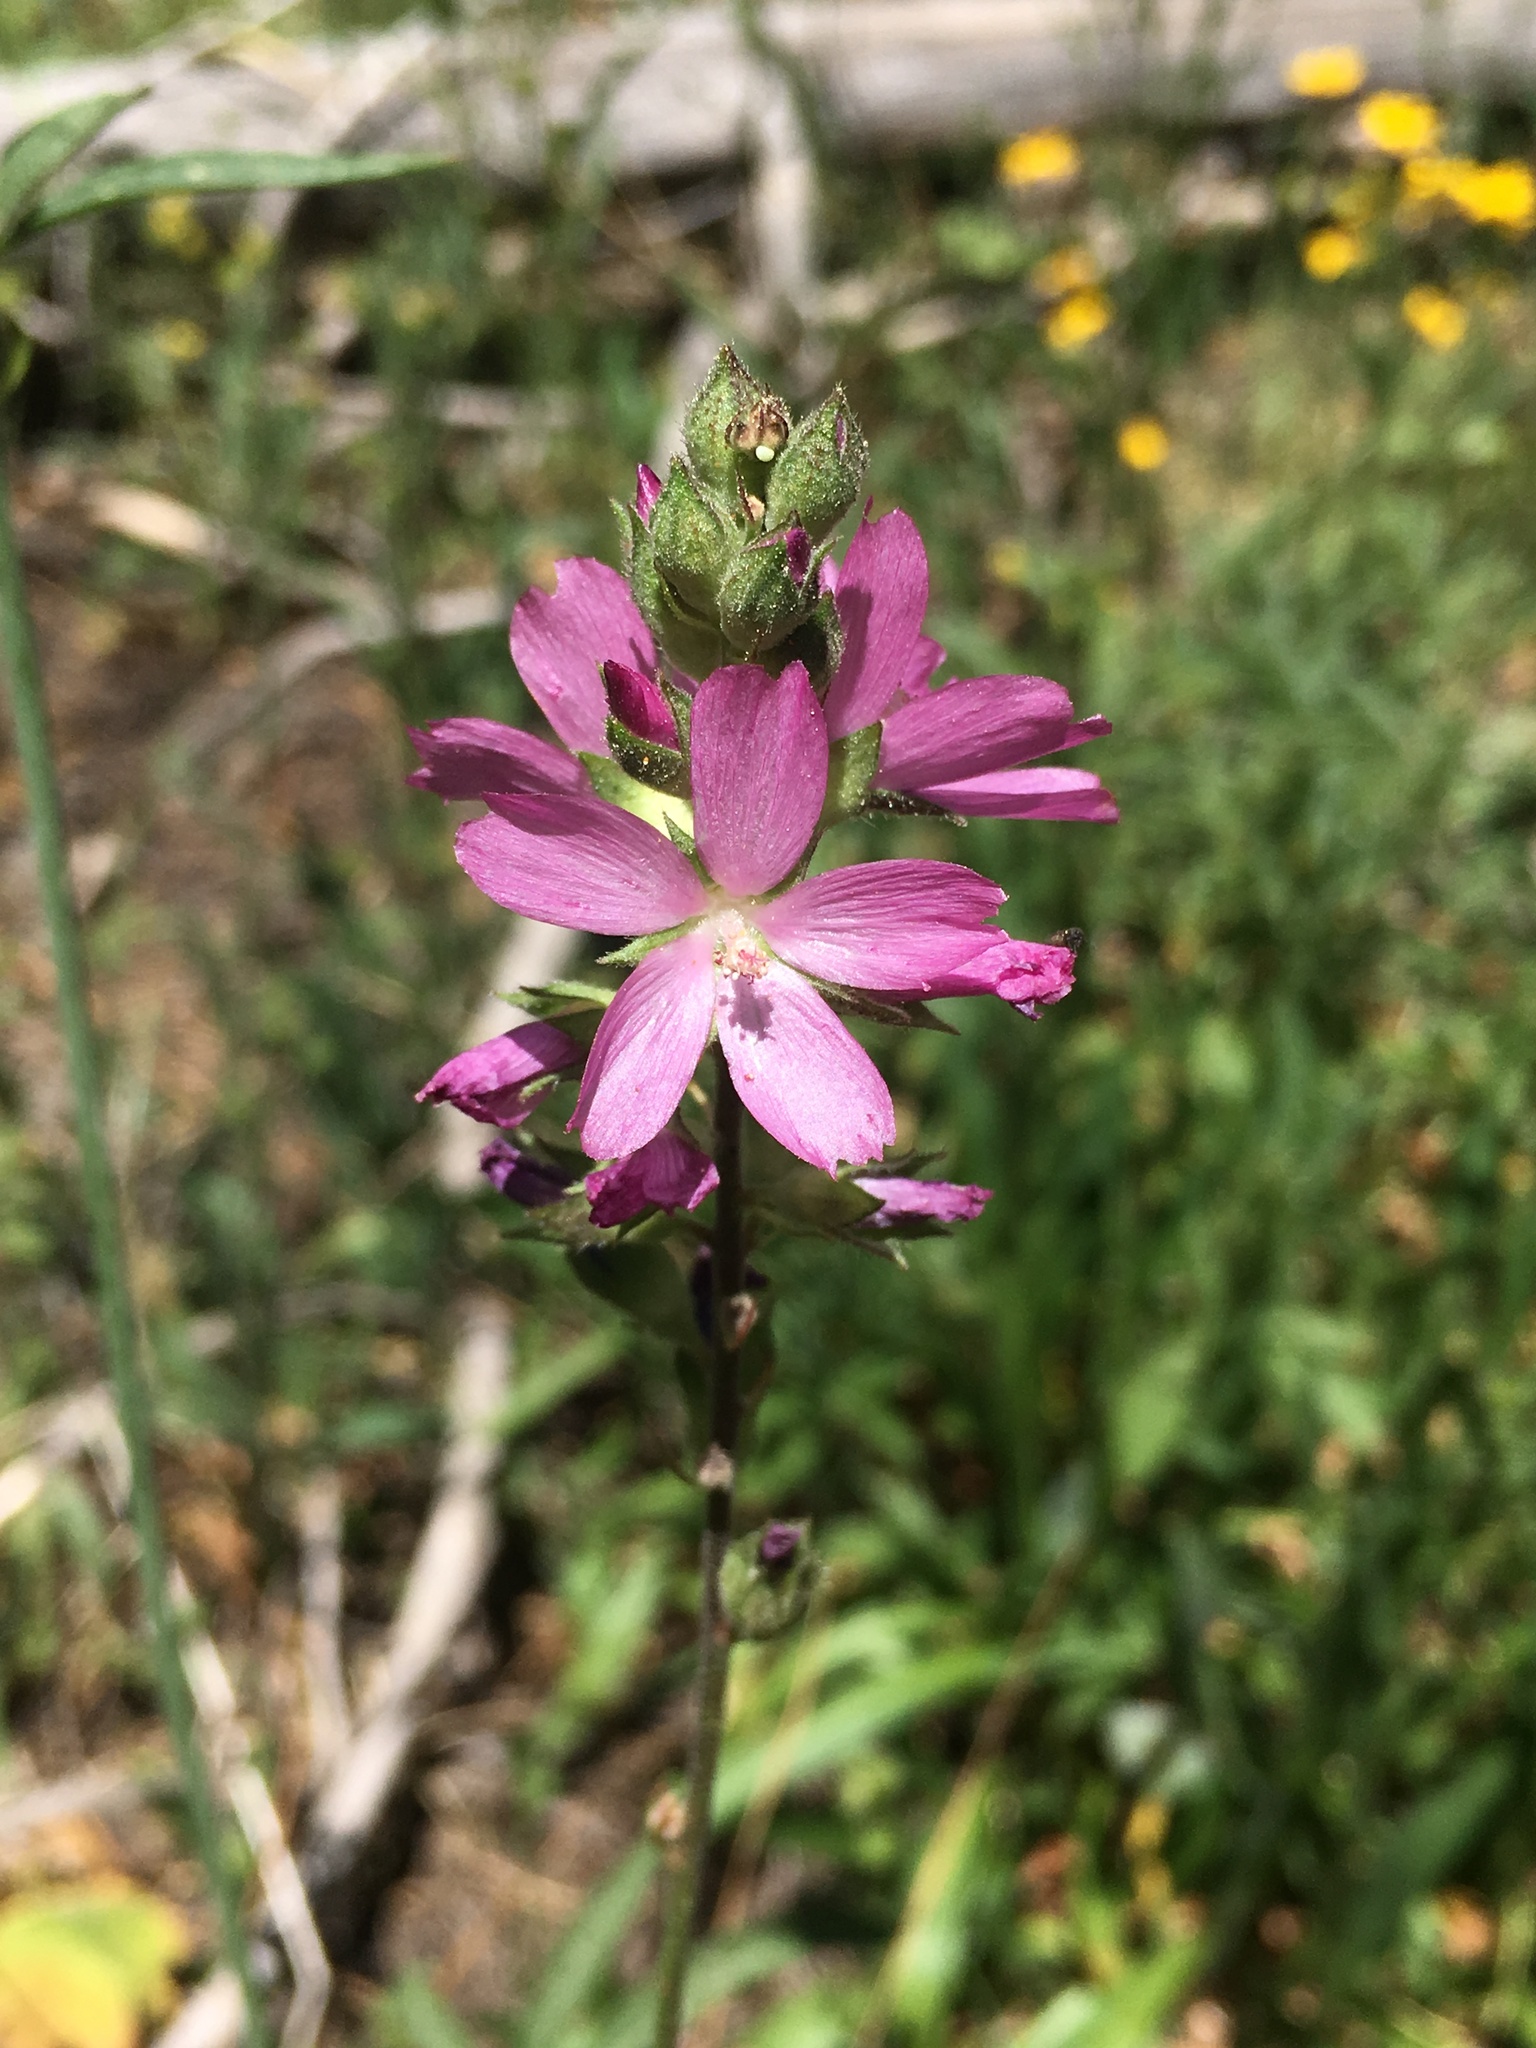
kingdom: Plantae
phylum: Tracheophyta
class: Magnoliopsida
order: Malvales
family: Malvaceae
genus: Sidalcea
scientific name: Sidalcea oregana
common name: Oregon checker-mallow
